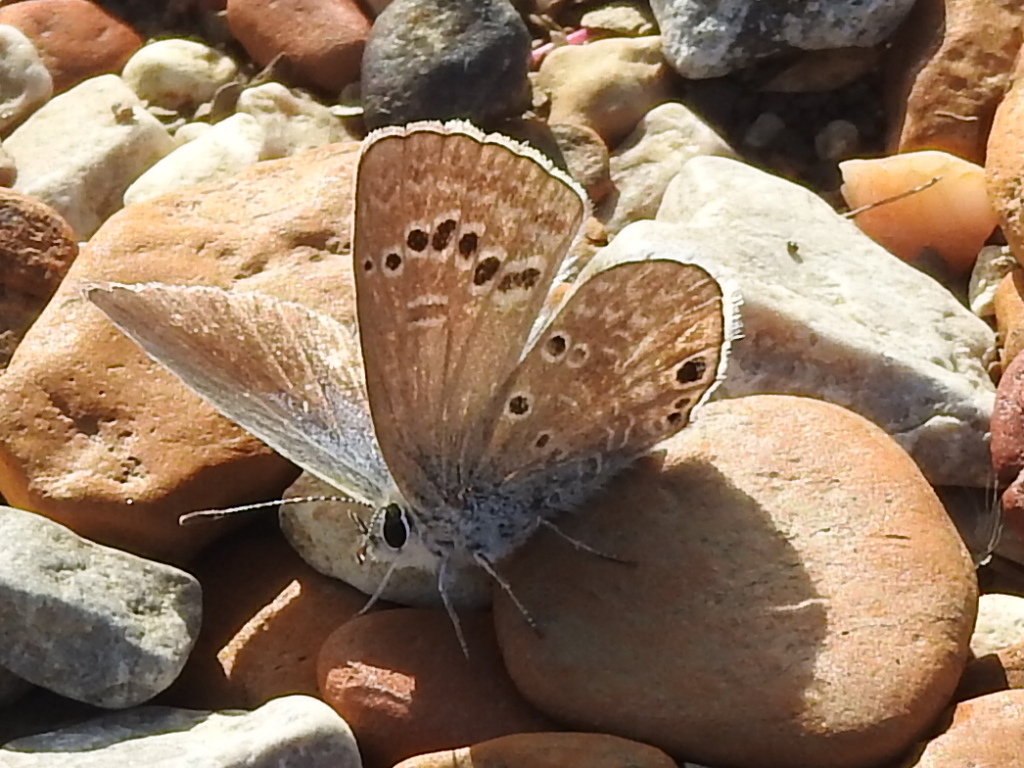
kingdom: Animalia
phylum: Arthropoda
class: Insecta
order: Lepidoptera
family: Lycaenidae
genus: Echinargus
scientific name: Echinargus isola
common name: Reakirt's blue
